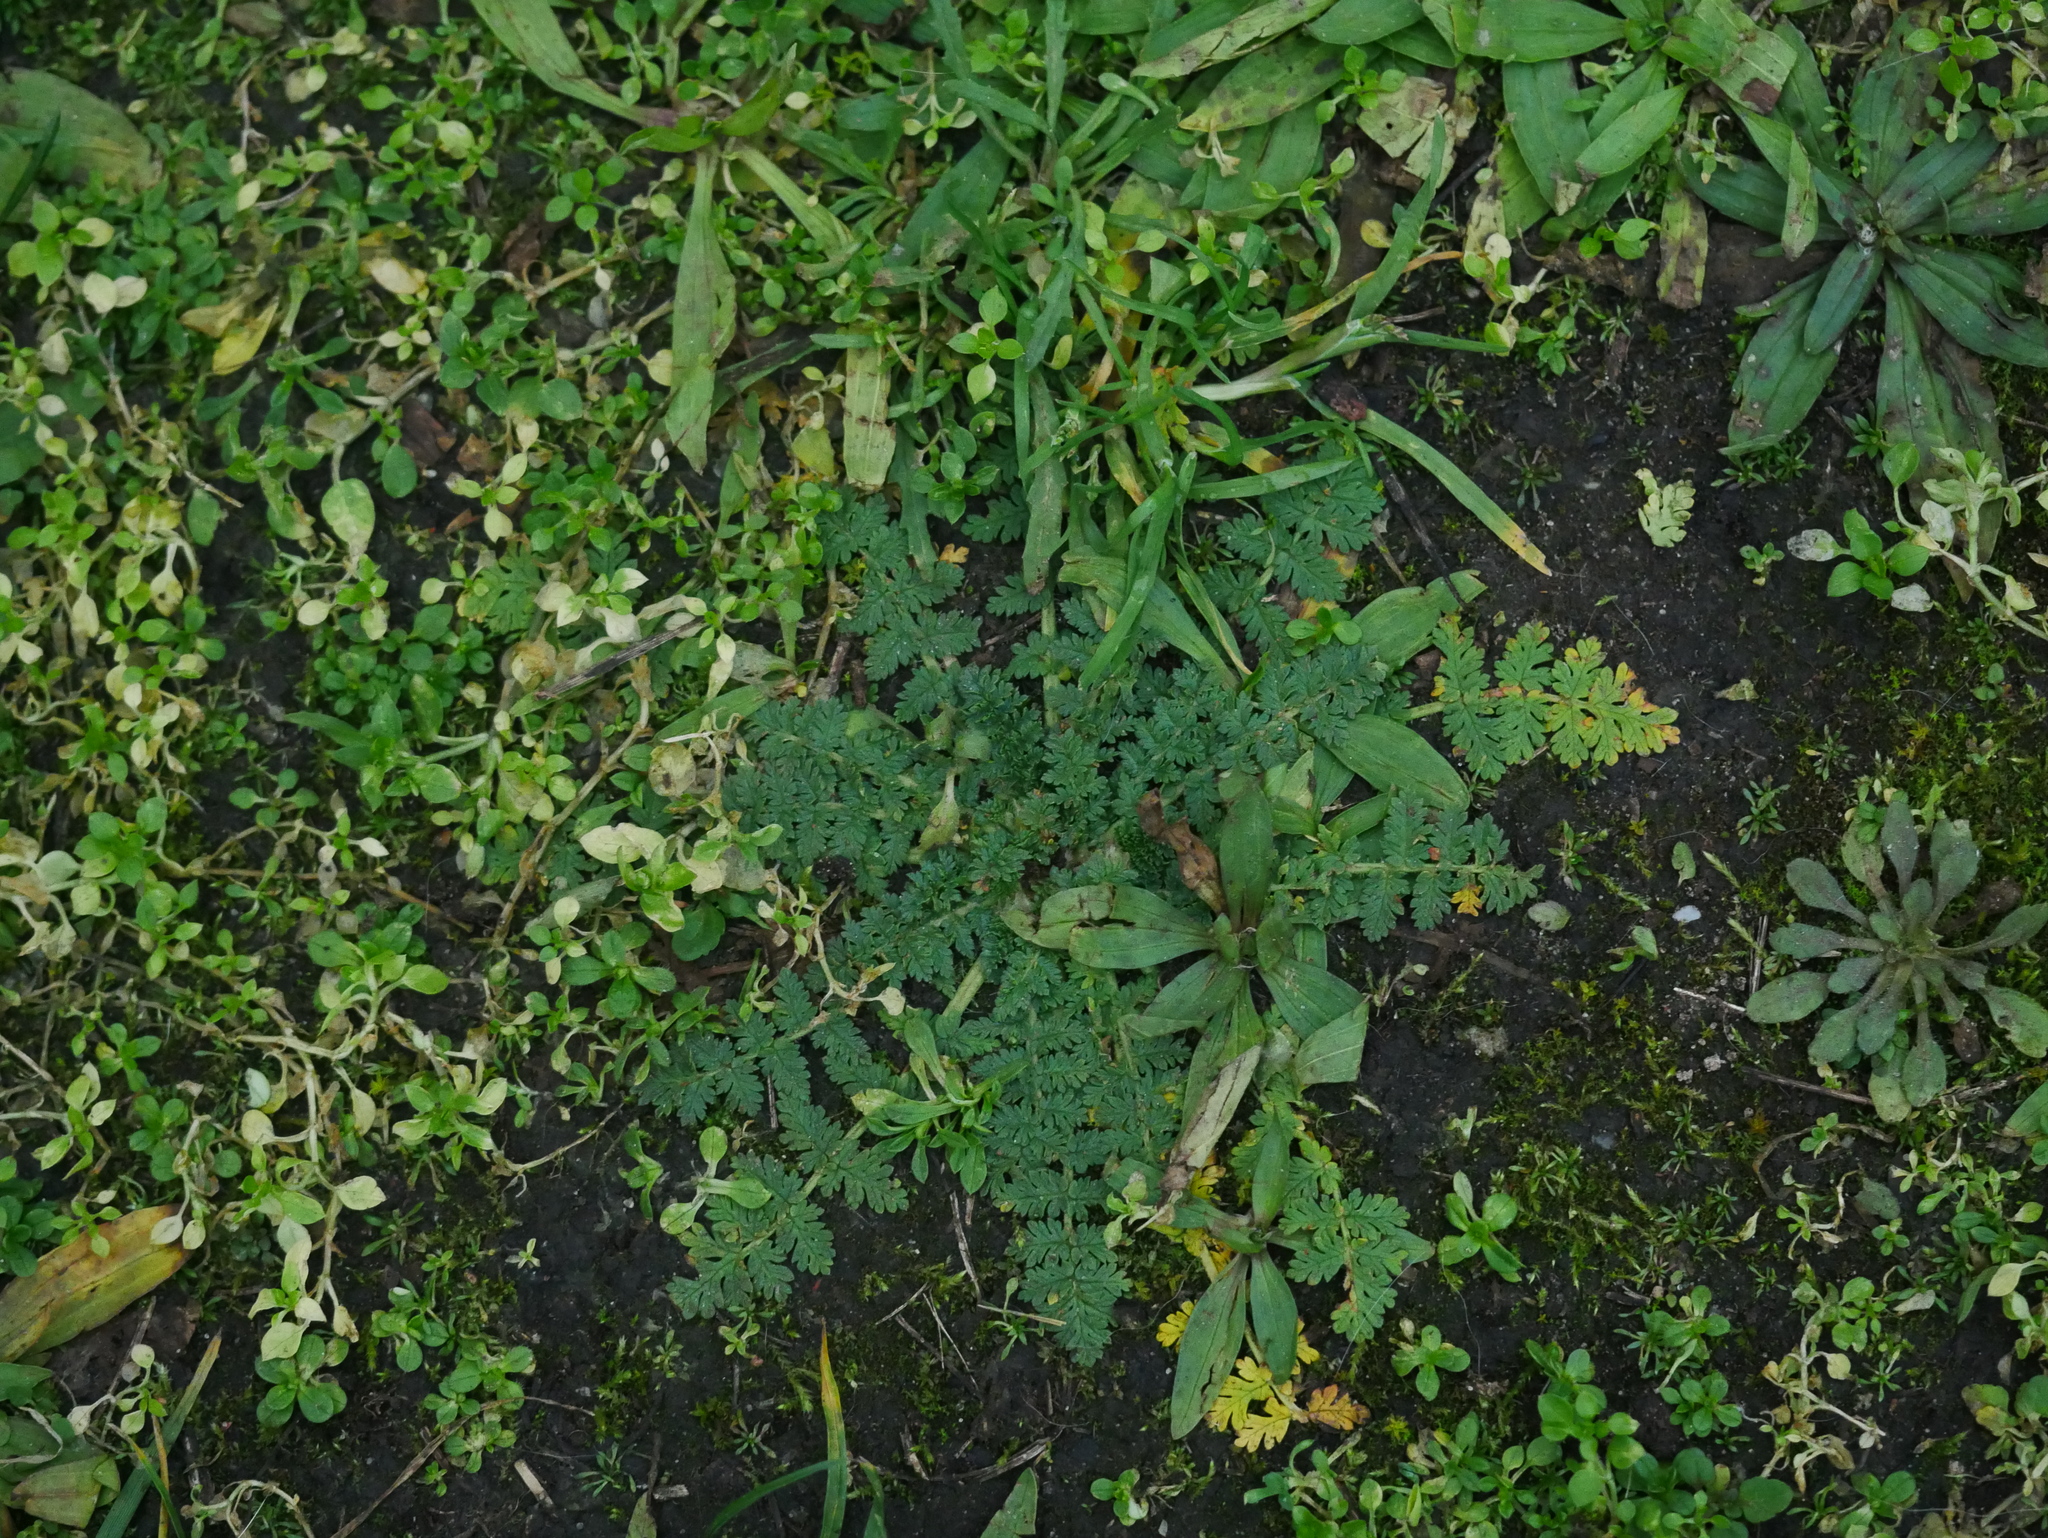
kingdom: Plantae
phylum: Tracheophyta
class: Magnoliopsida
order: Geraniales
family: Geraniaceae
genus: Erodium
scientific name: Erodium cicutarium
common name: Common stork's-bill
